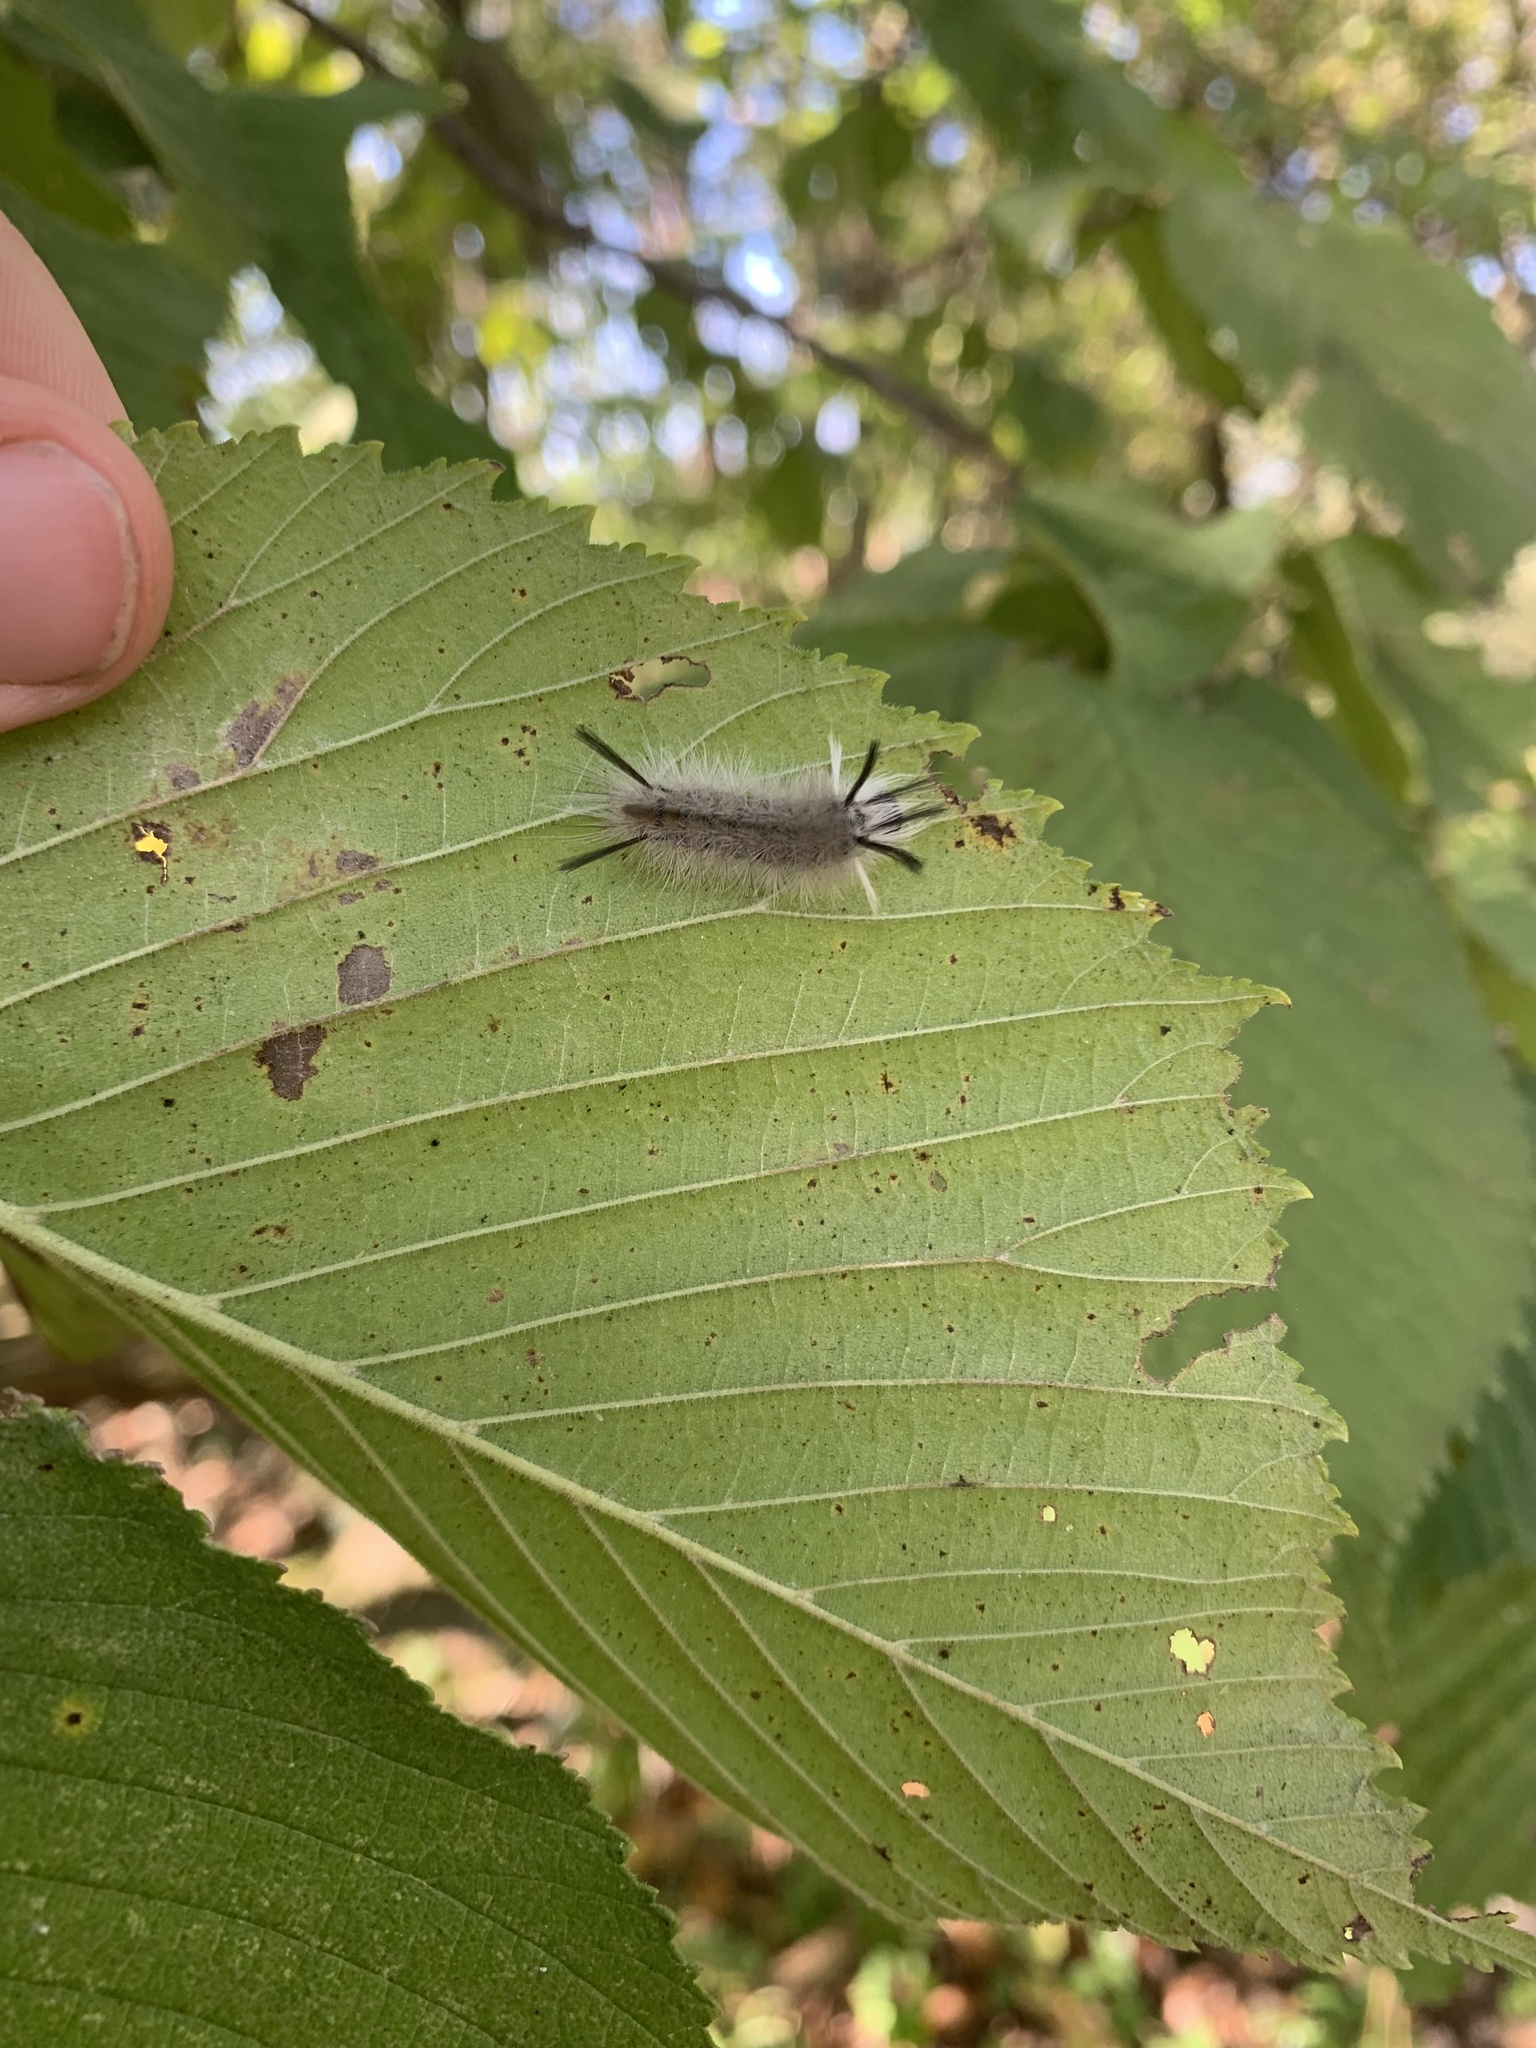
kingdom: Animalia
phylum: Arthropoda
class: Insecta
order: Lepidoptera
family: Erebidae
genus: Halysidota
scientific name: Halysidota tessellaris
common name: Banded tussock moth
